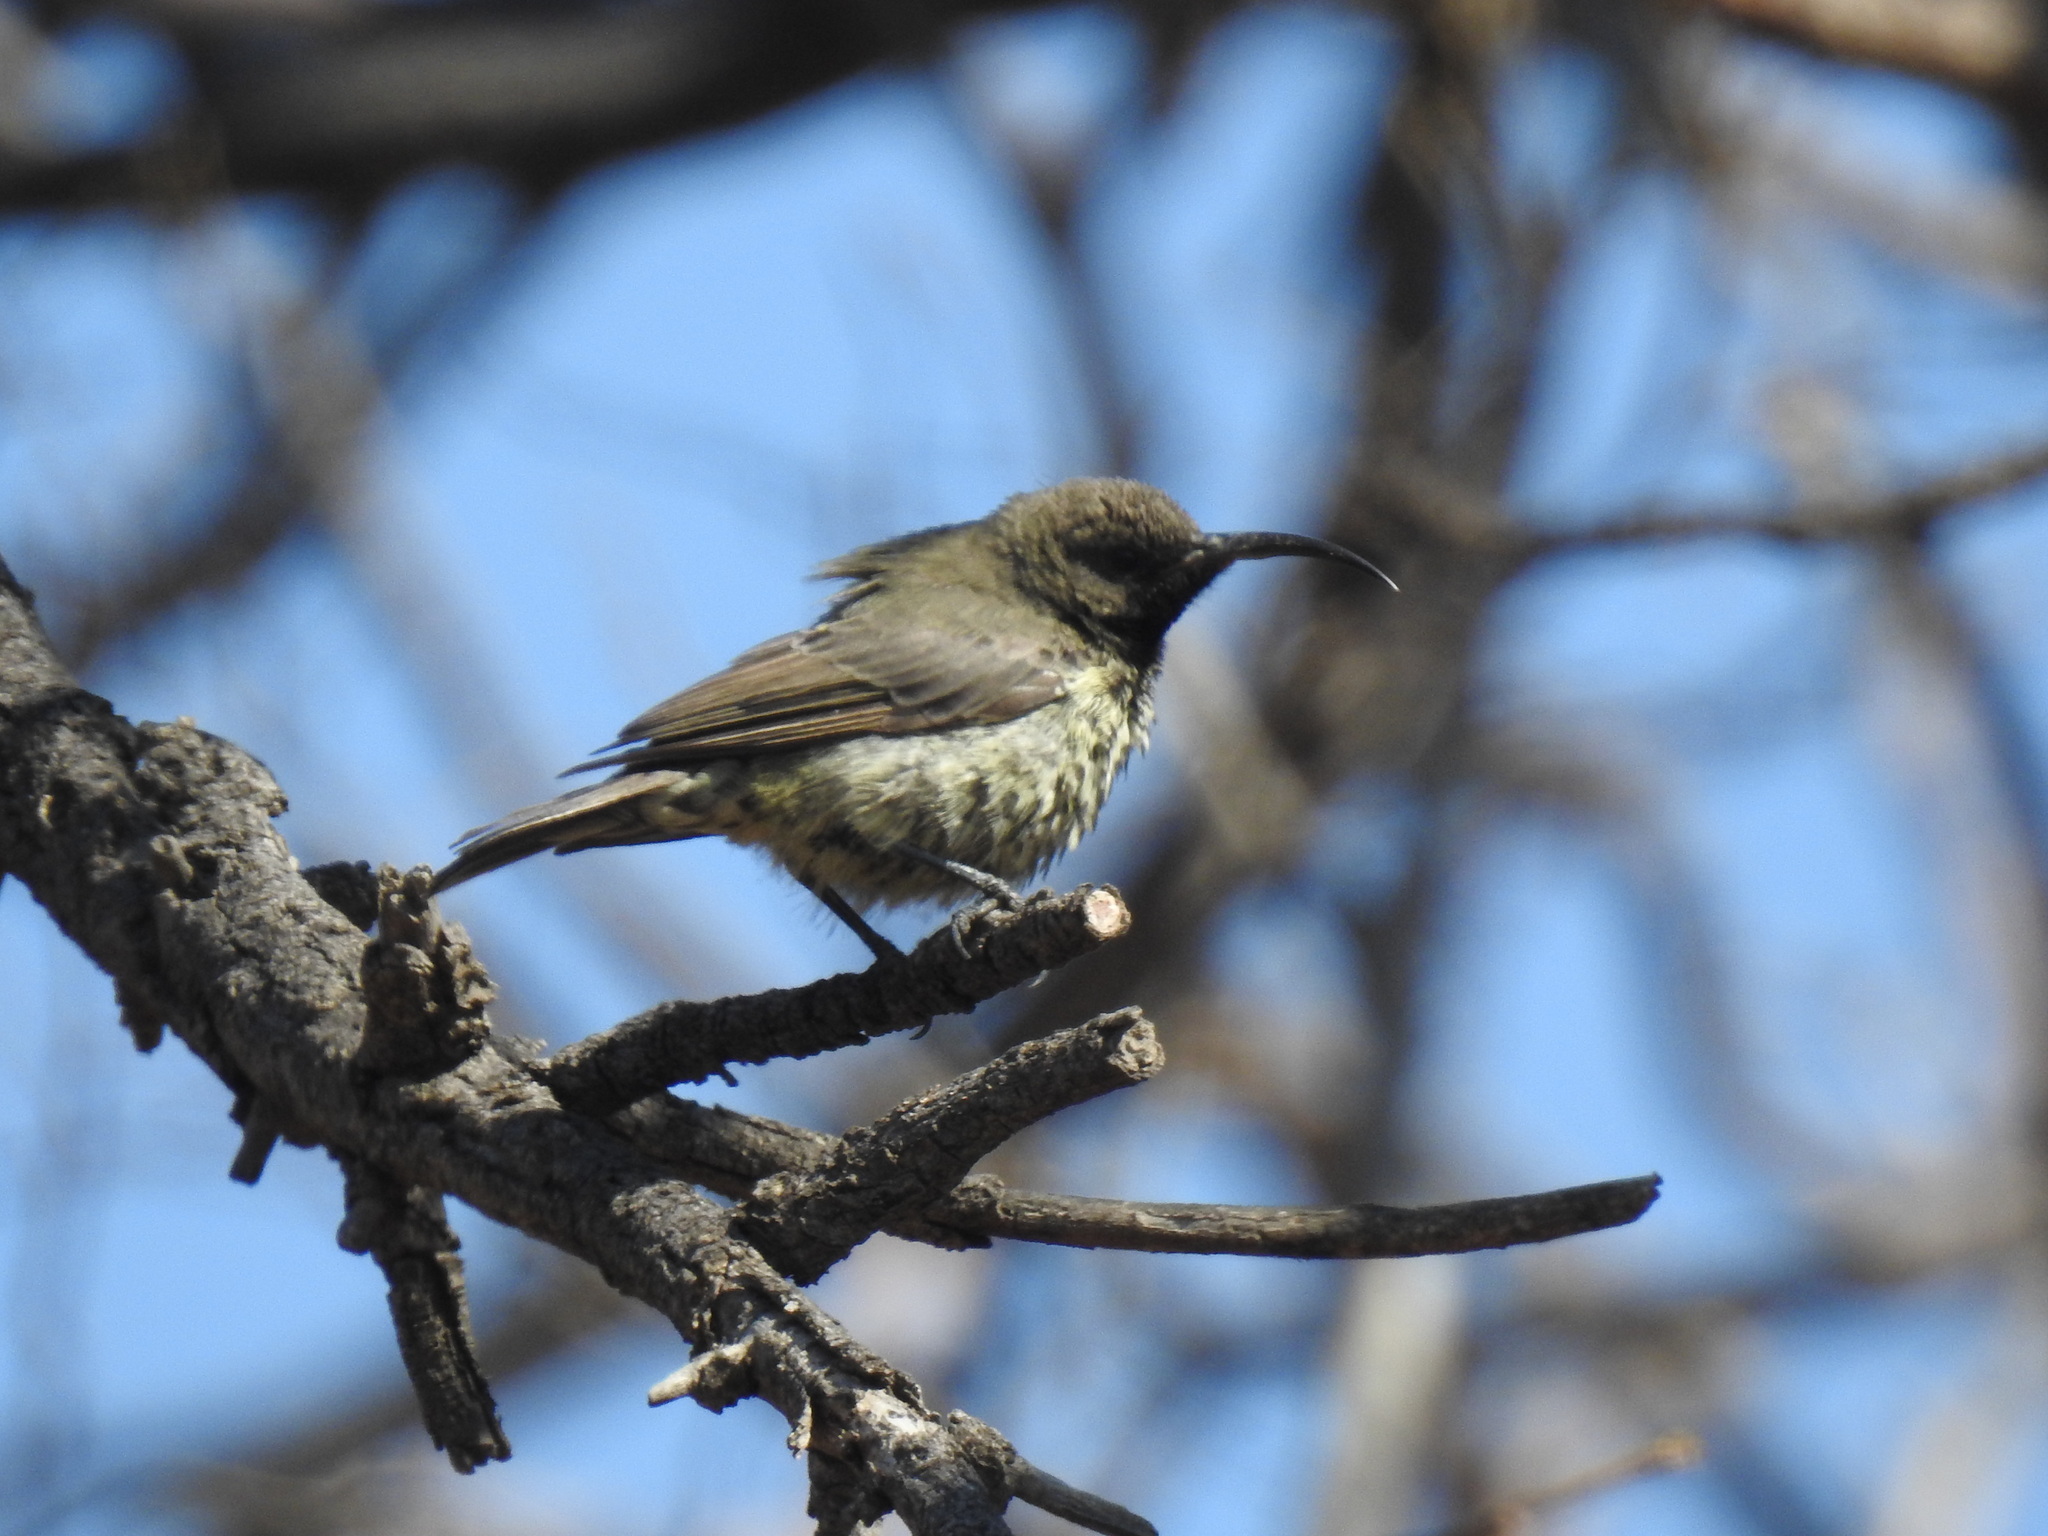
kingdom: Animalia
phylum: Chordata
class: Aves
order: Passeriformes
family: Nectariniidae
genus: Chalcomitra
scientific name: Chalcomitra amethystina
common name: Amethyst sunbird
